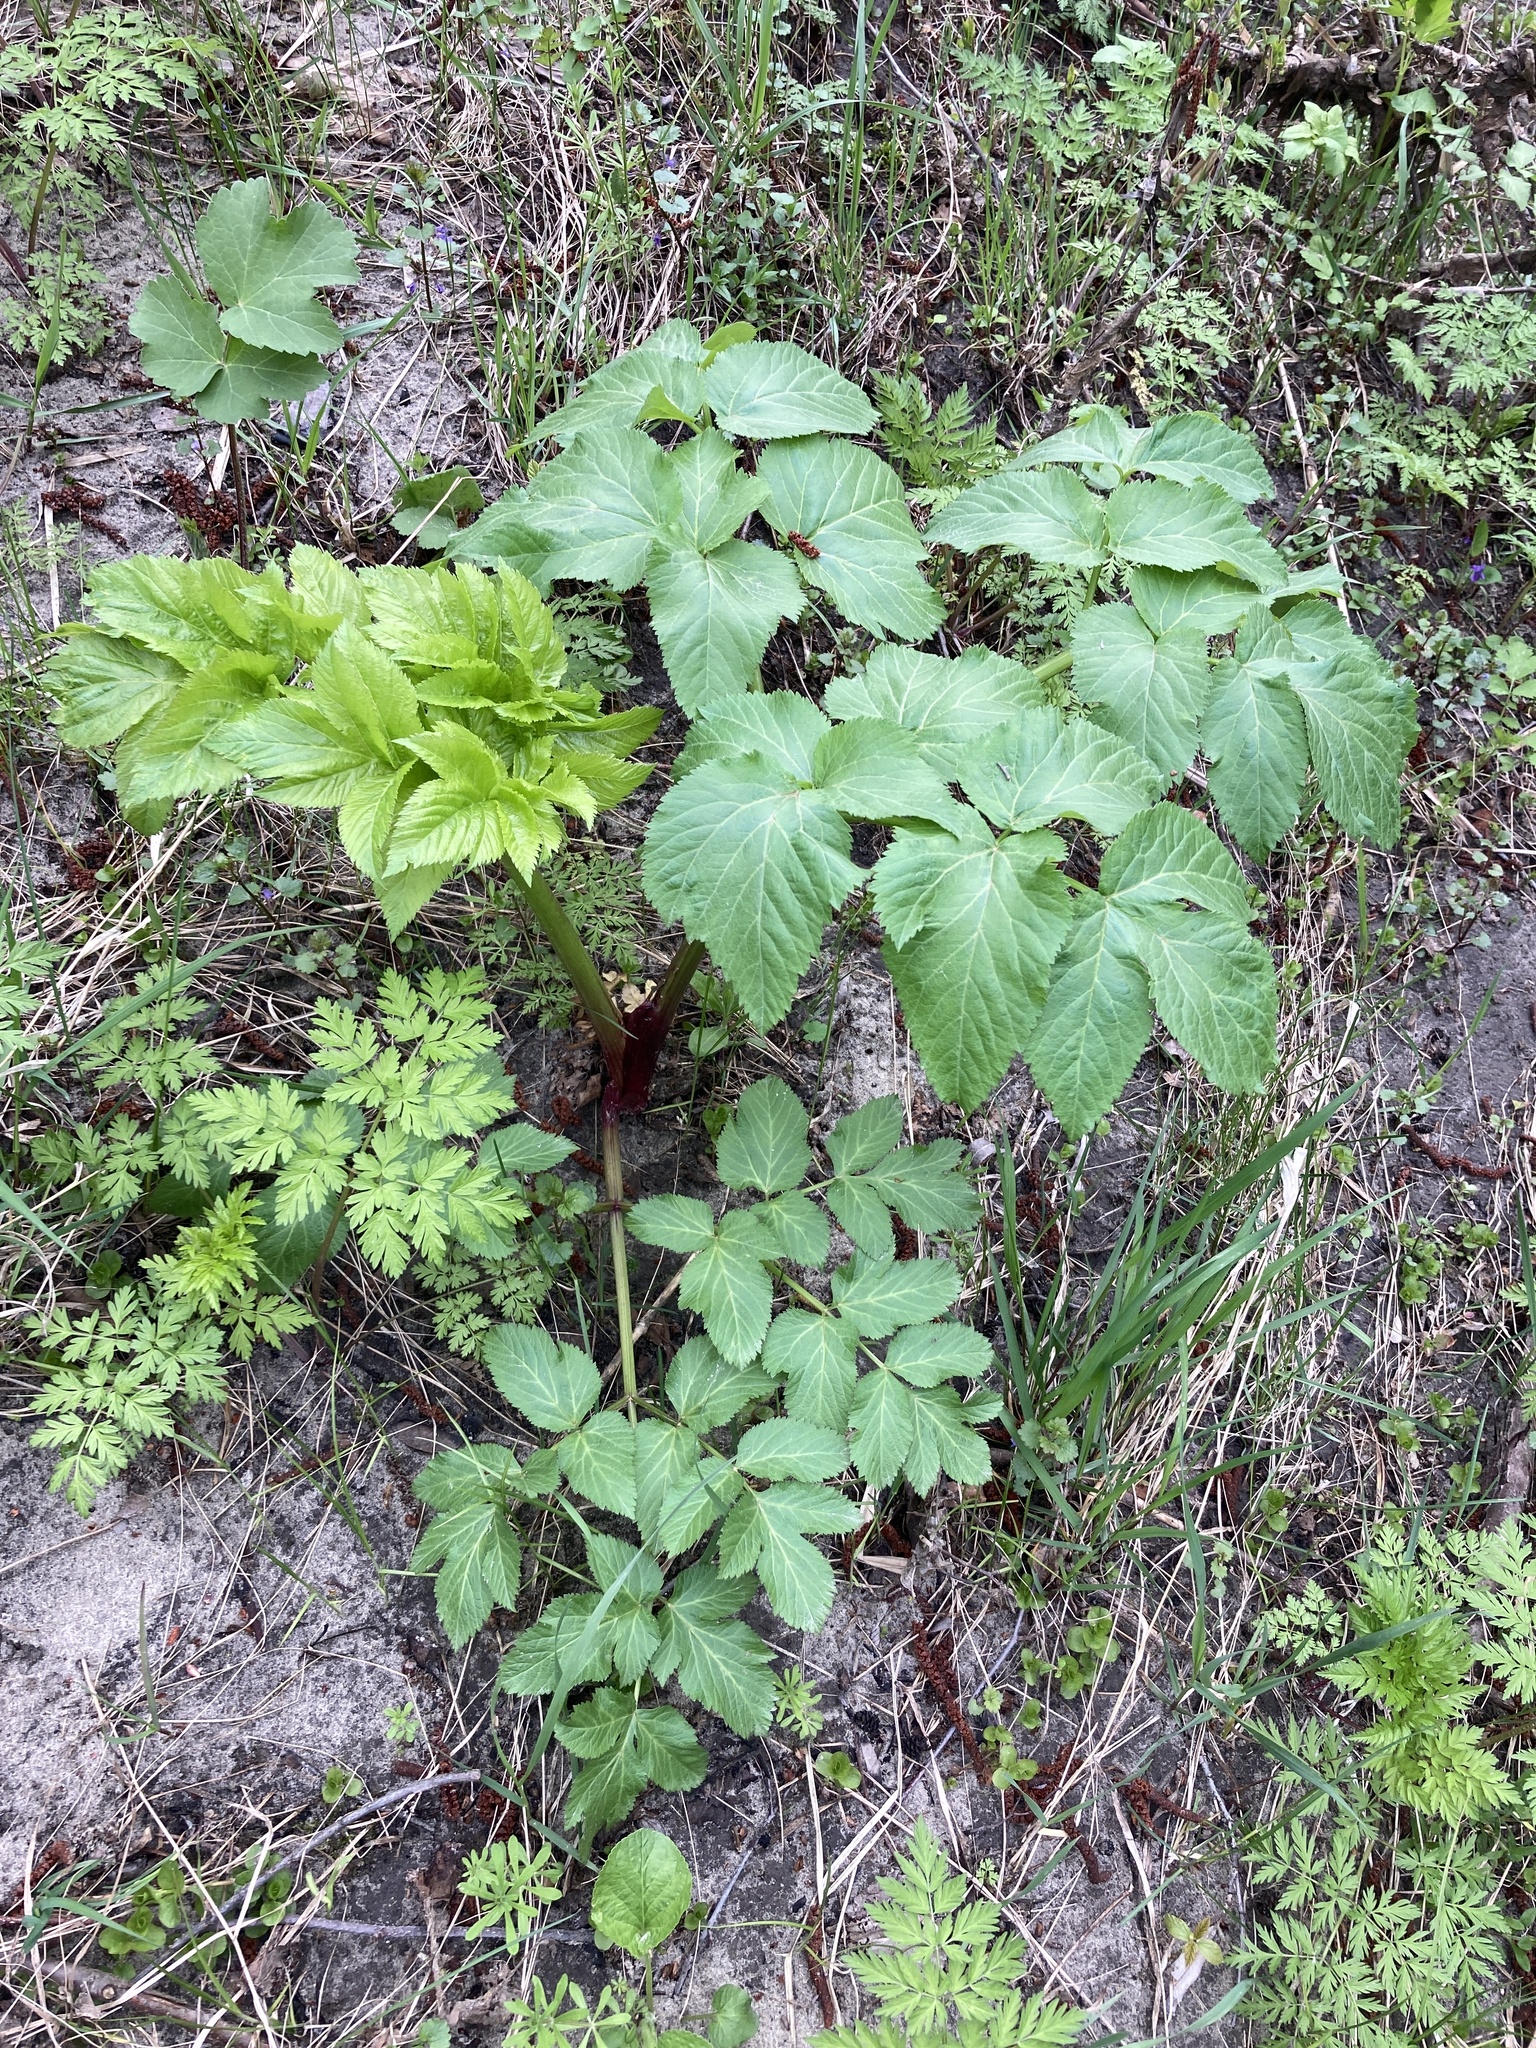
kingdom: Plantae
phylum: Tracheophyta
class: Magnoliopsida
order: Apiales
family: Apiaceae
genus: Angelica
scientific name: Angelica archangelica
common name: Garden angelica
